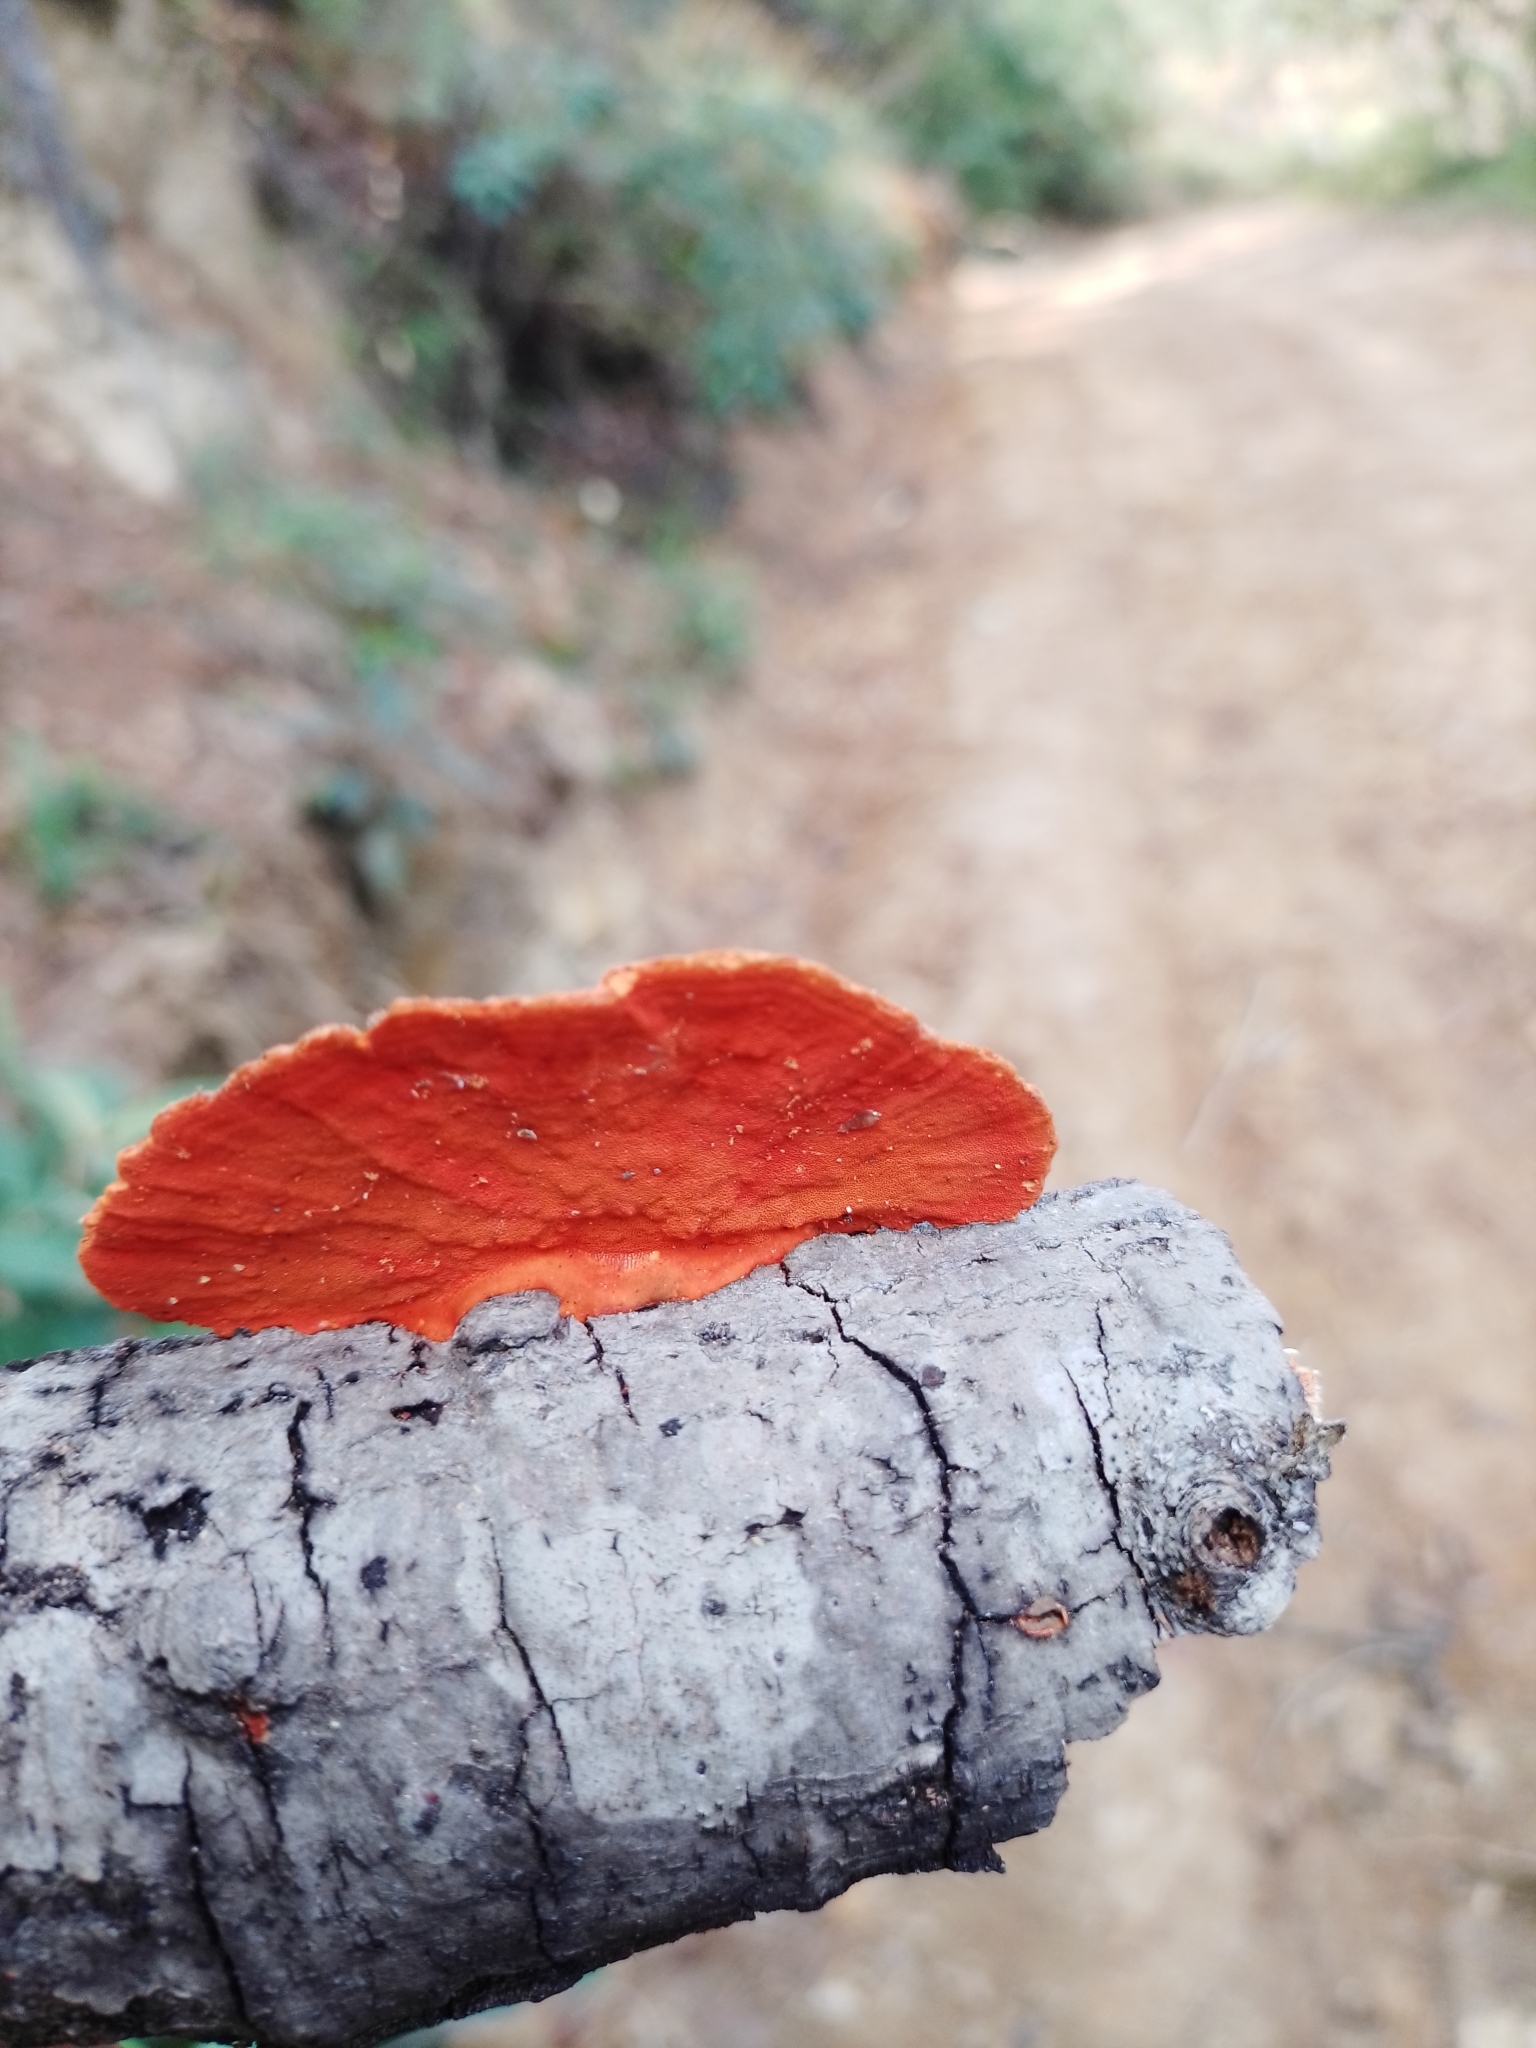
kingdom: Fungi
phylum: Basidiomycota
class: Agaricomycetes
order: Polyporales
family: Polyporaceae
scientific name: Polyporaceae
